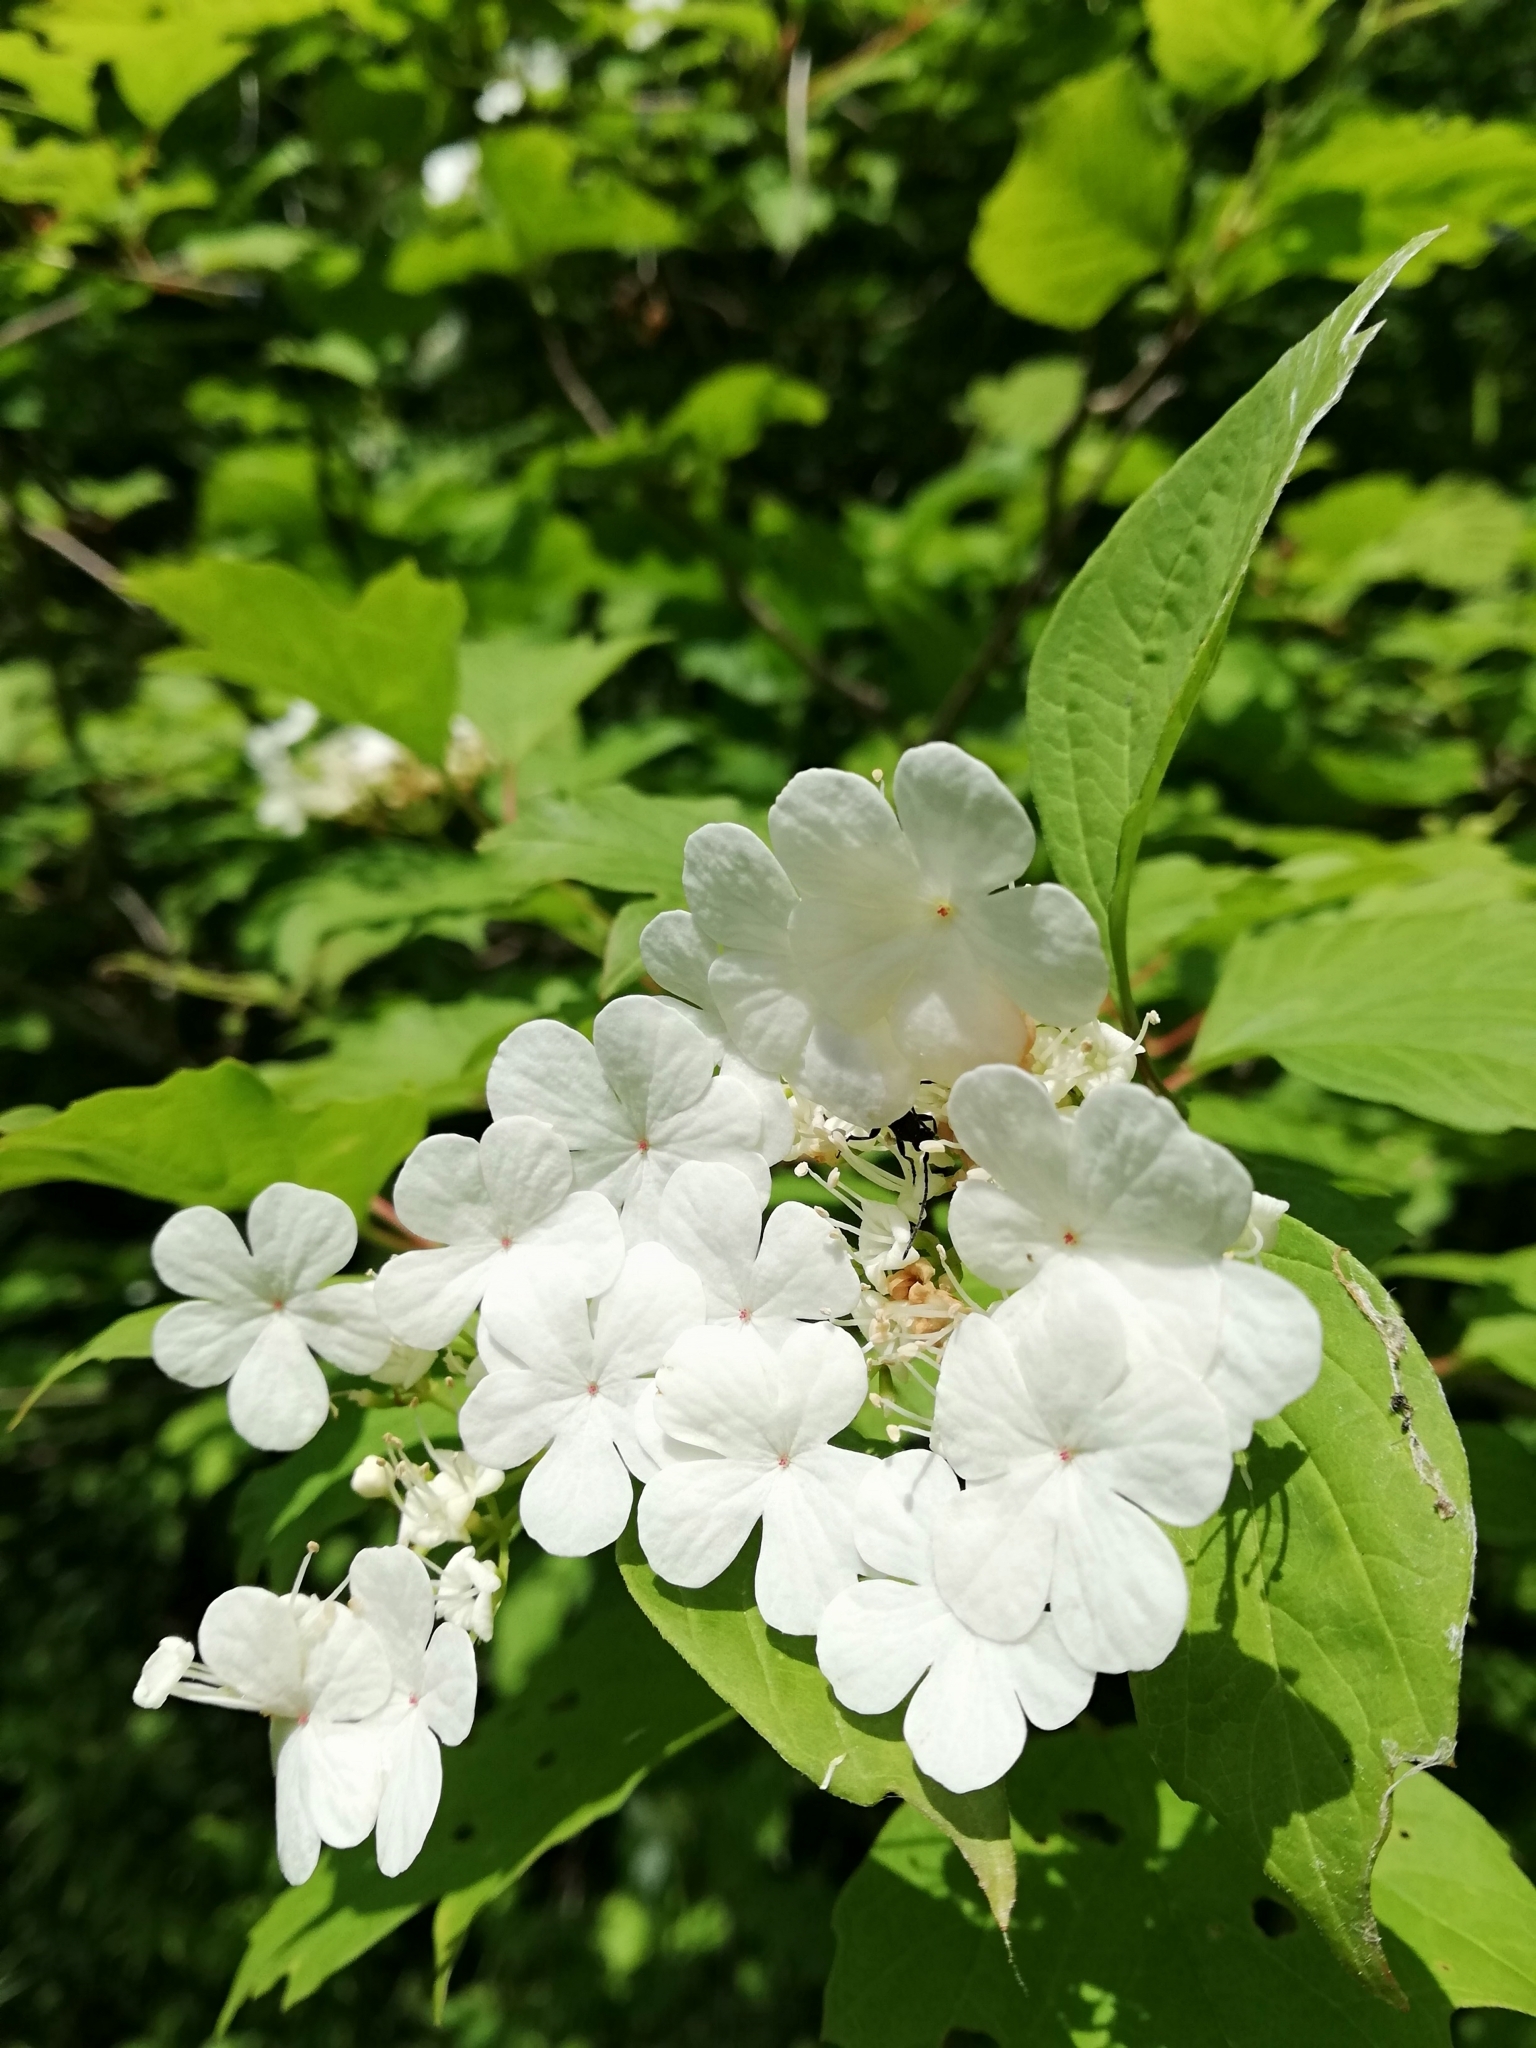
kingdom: Plantae
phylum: Tracheophyta
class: Magnoliopsida
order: Dipsacales
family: Viburnaceae
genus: Viburnum
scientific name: Viburnum opulus
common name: Guelder-rose
